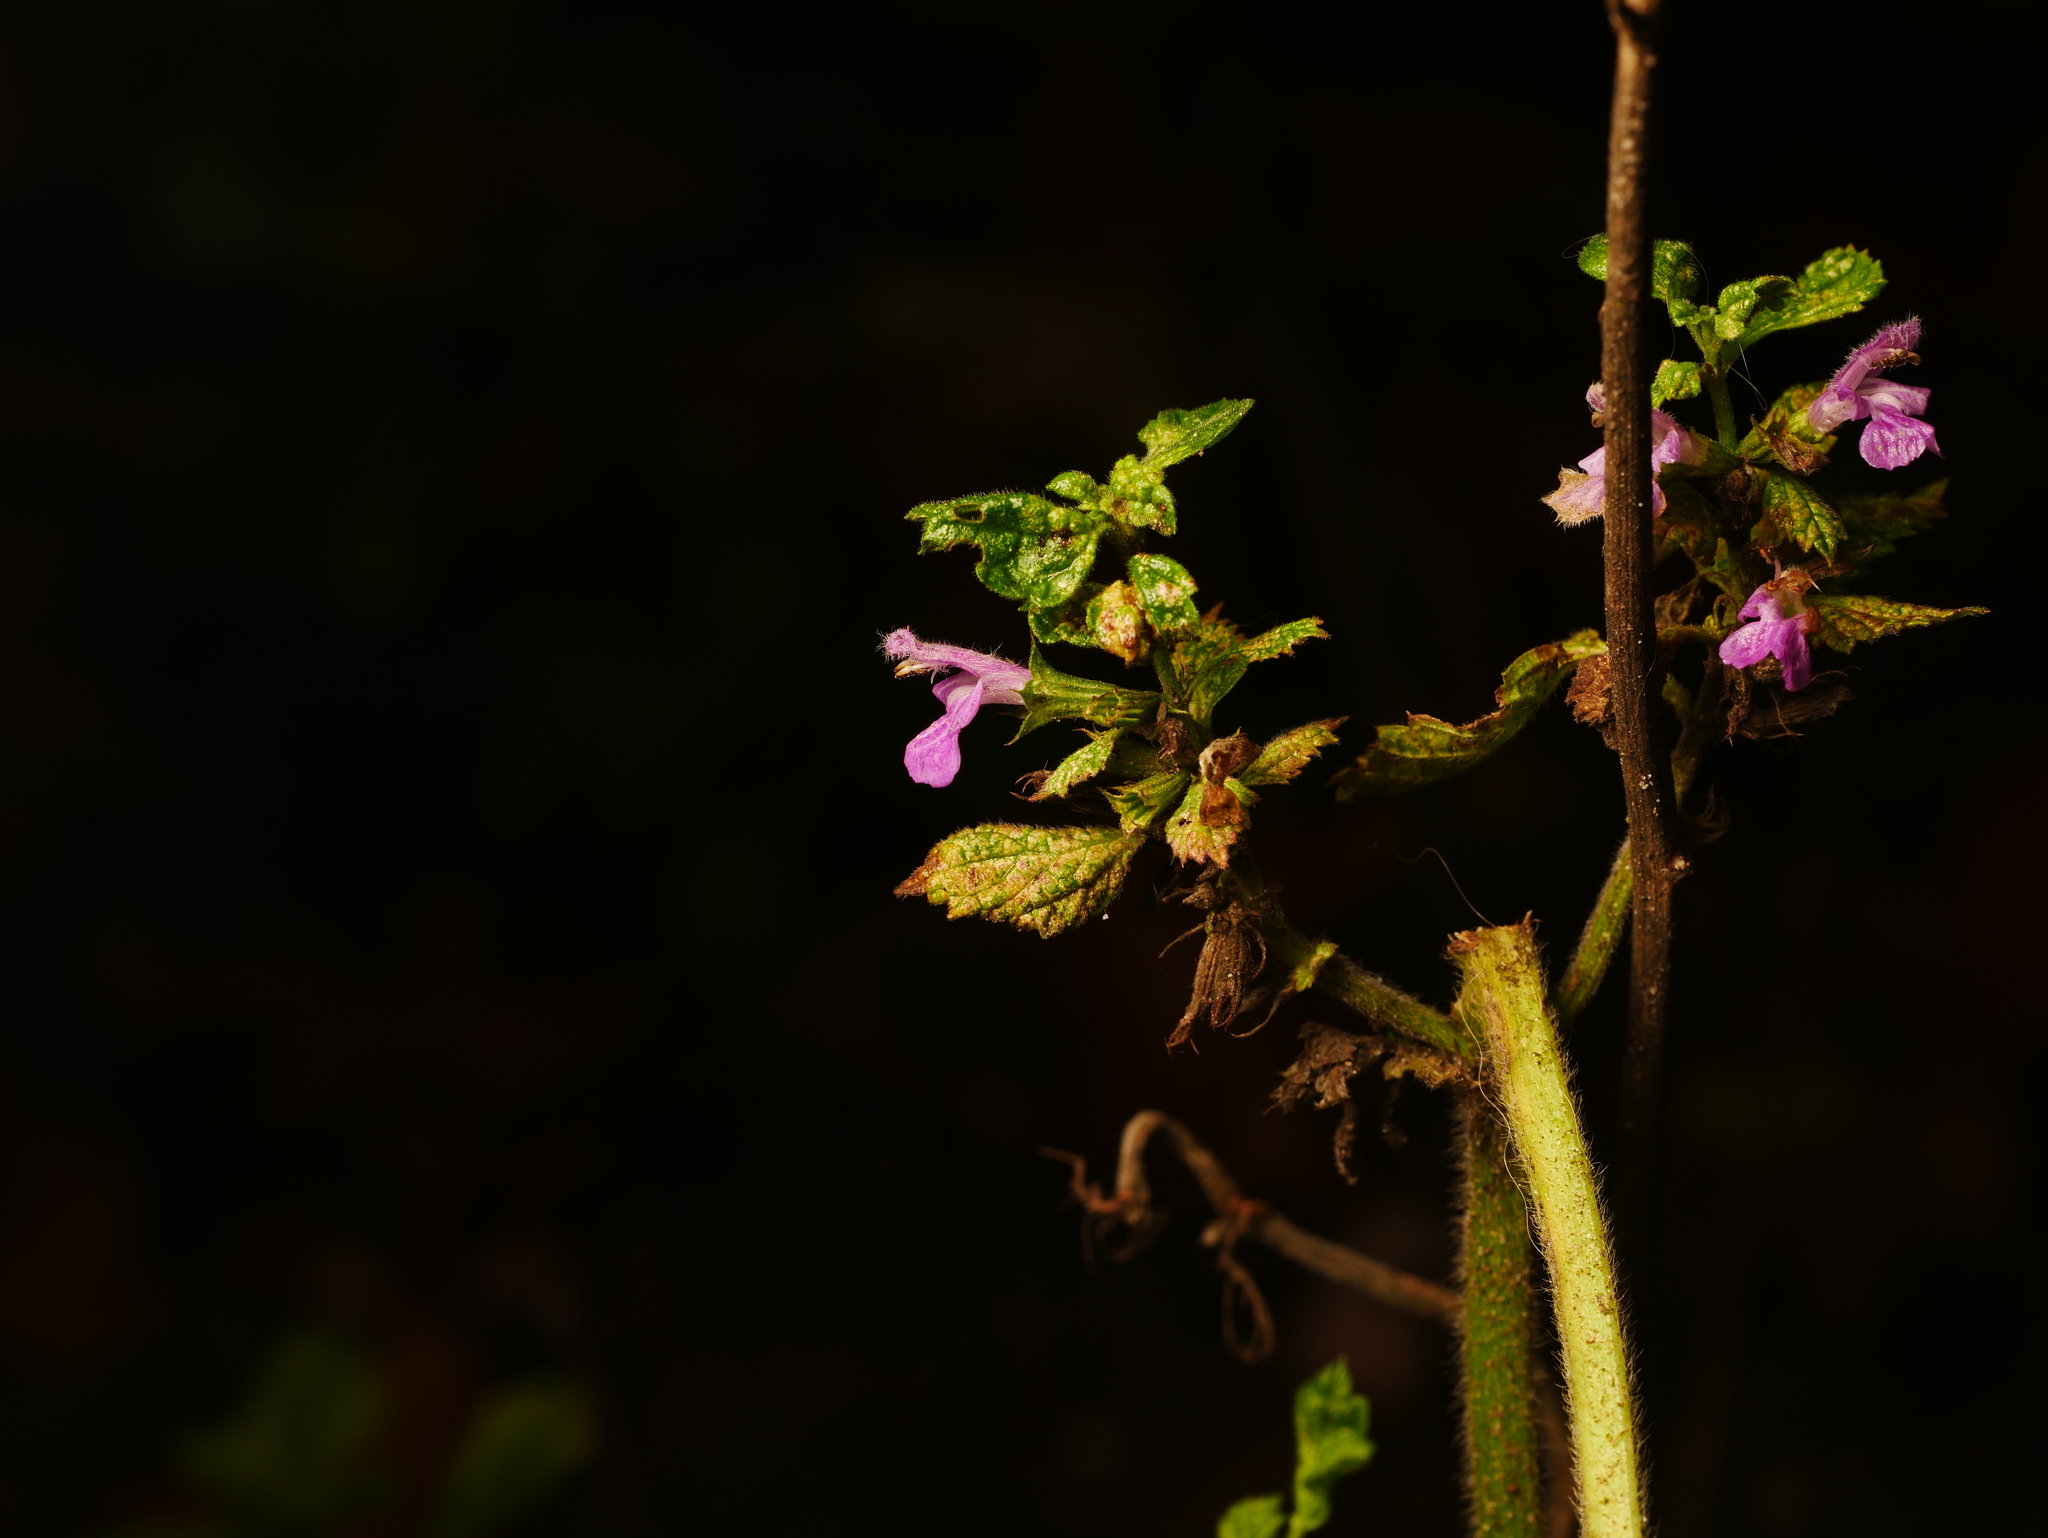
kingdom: Plantae
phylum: Tracheophyta
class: Magnoliopsida
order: Lamiales
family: Lamiaceae
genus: Ballota
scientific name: Ballota nigra
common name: Black horehound
